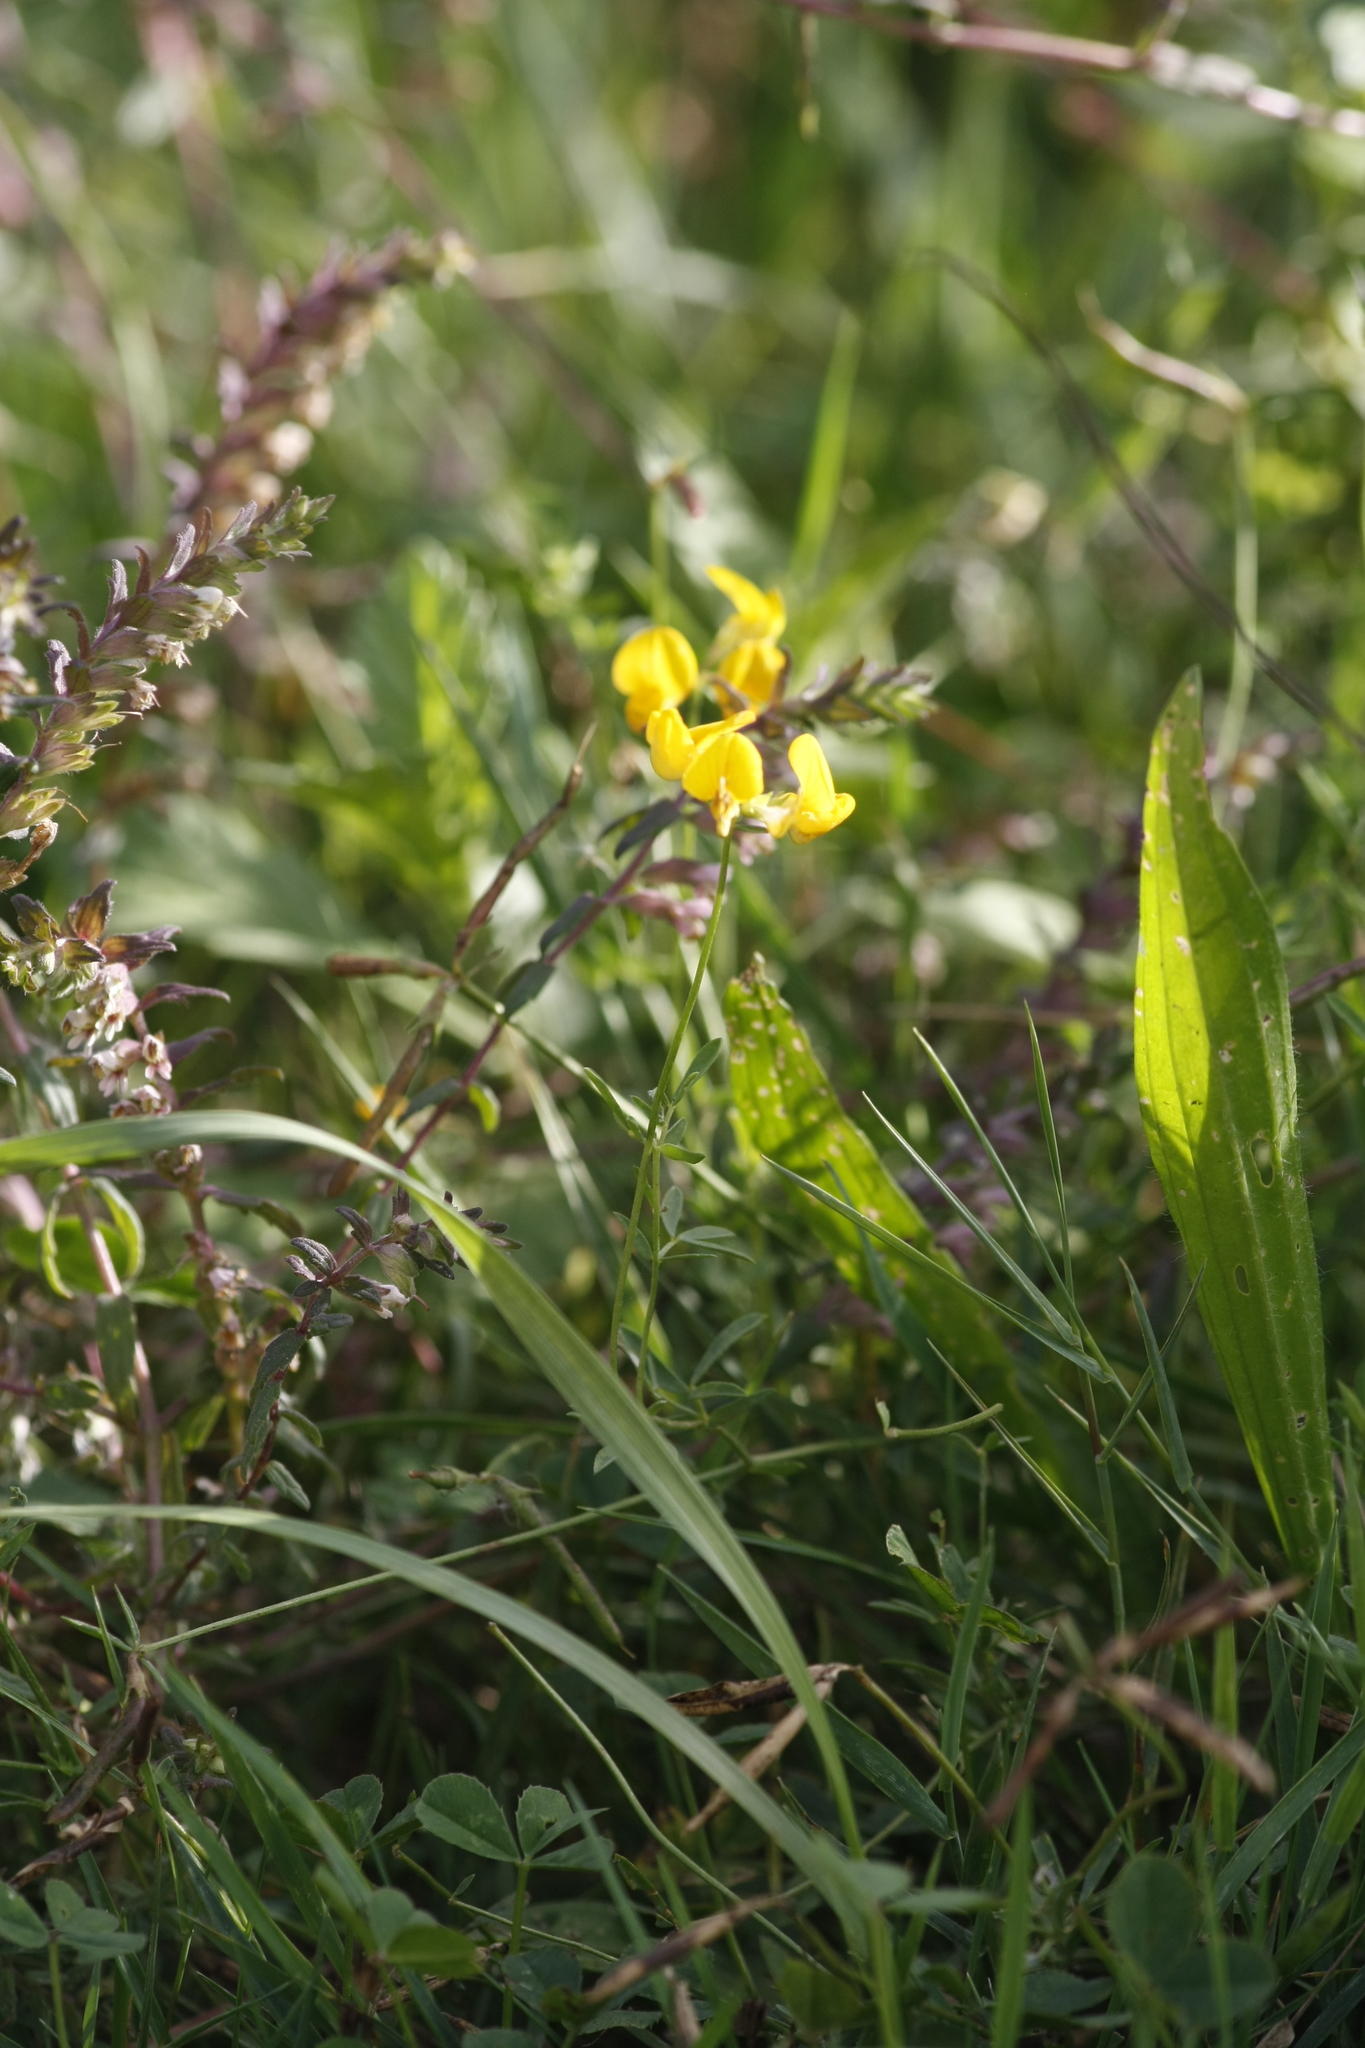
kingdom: Plantae
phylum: Tracheophyta
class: Magnoliopsida
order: Fabales
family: Fabaceae
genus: Lotus
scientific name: Lotus corniculatus
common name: Common bird's-foot-trefoil
